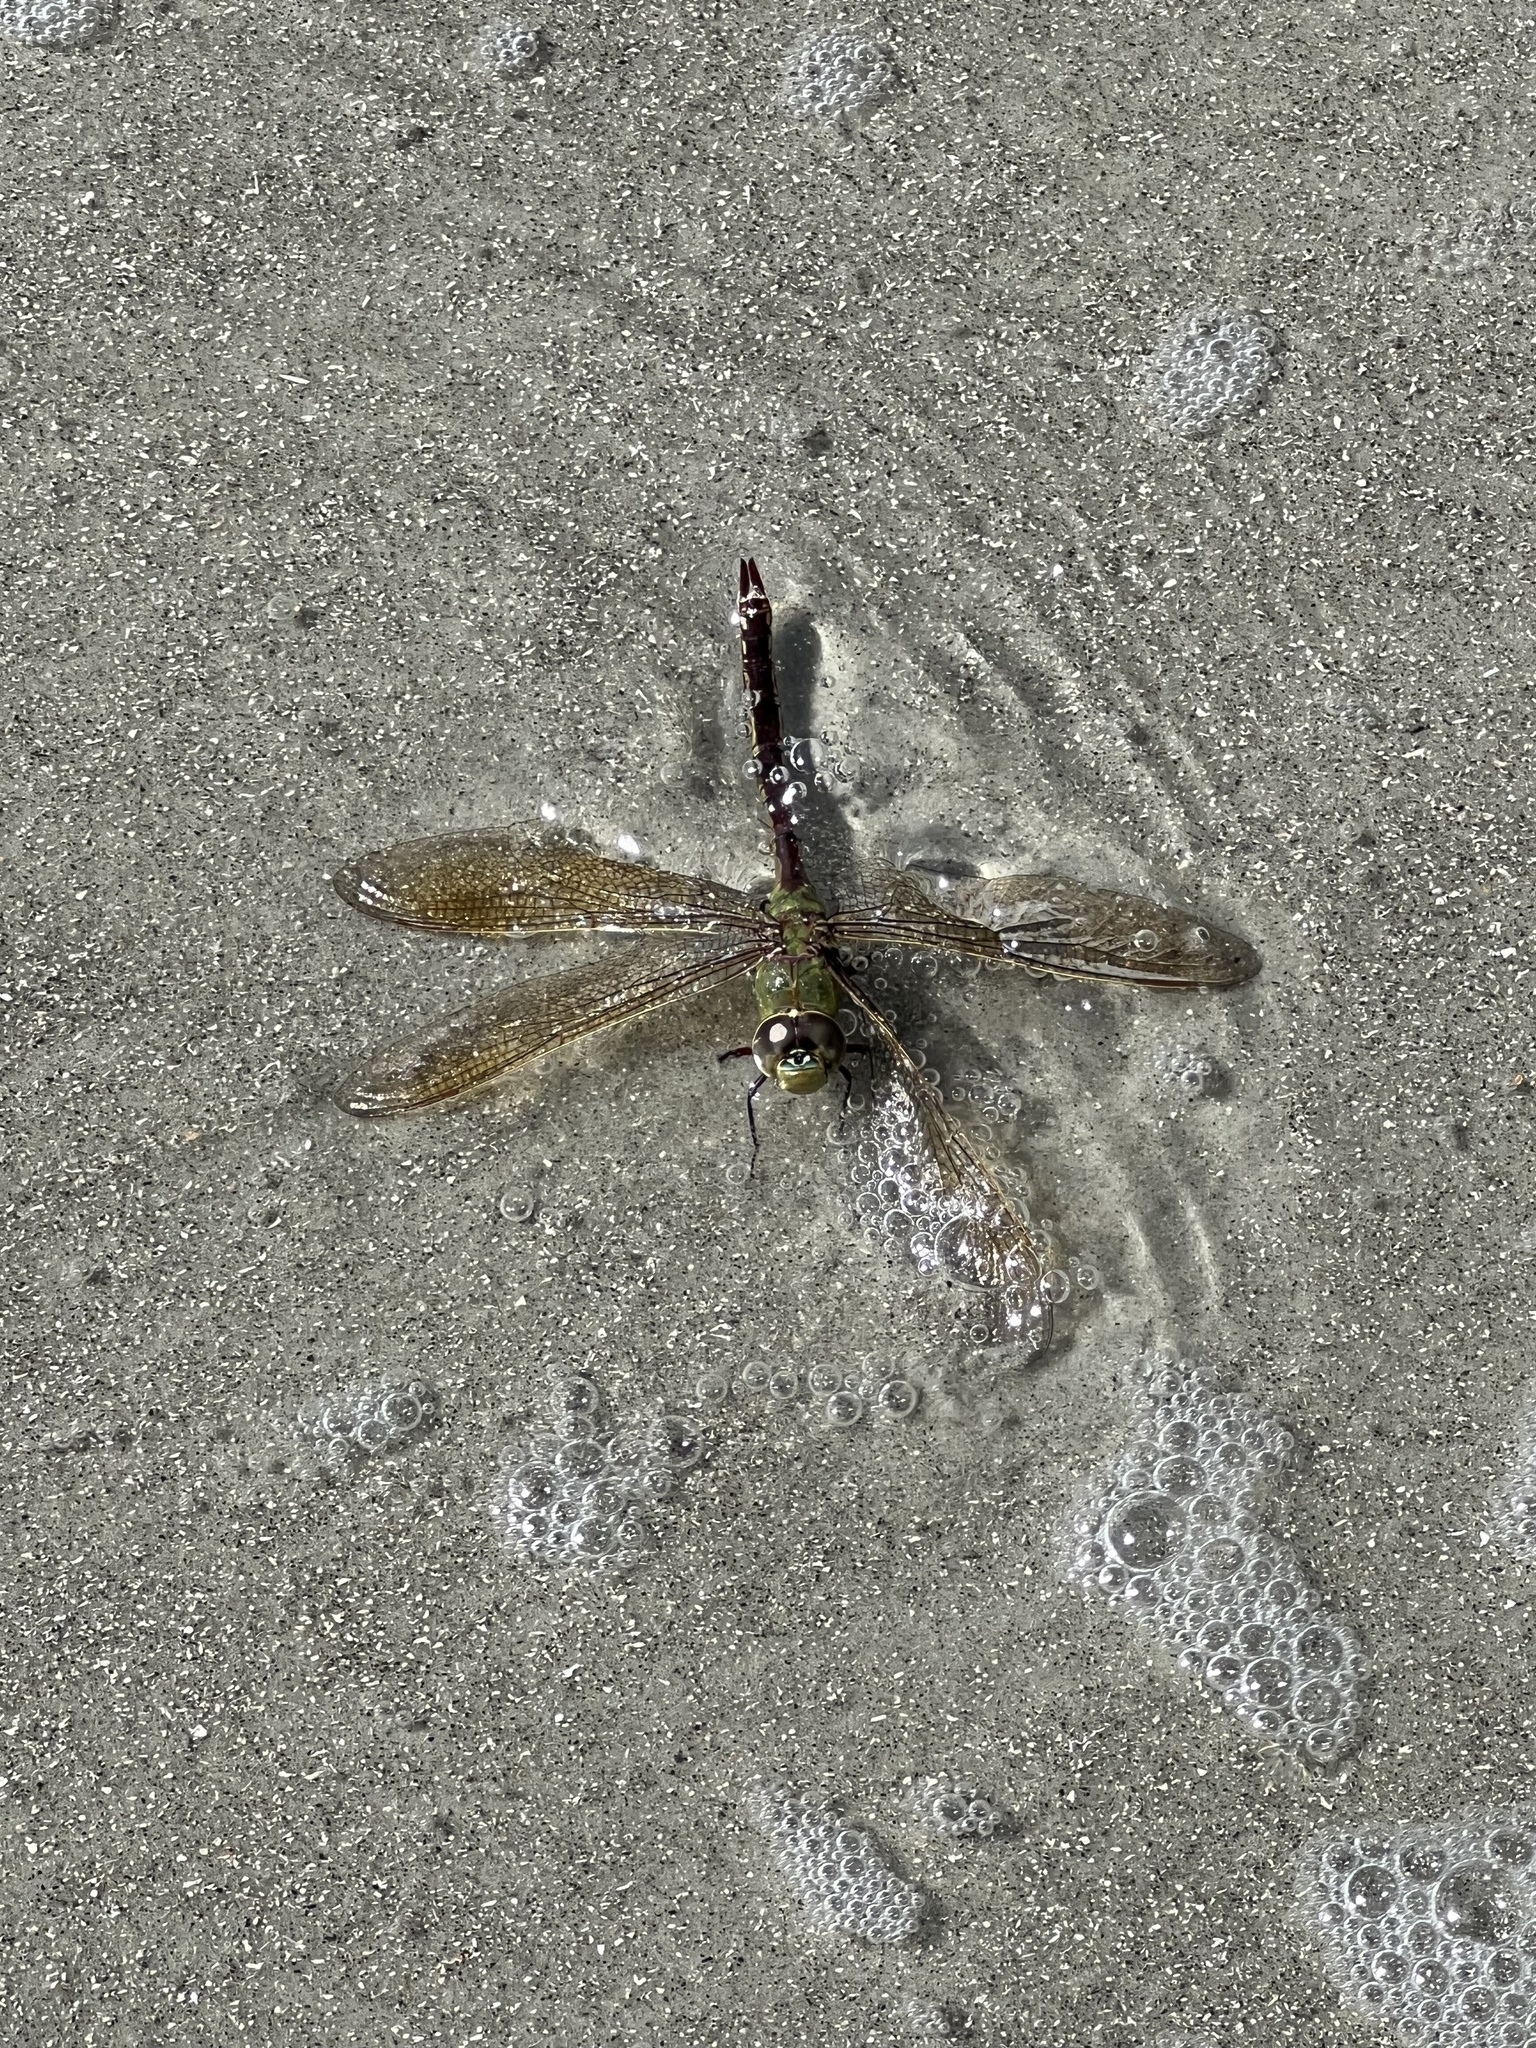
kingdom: Animalia
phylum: Arthropoda
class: Insecta
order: Odonata
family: Aeshnidae
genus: Anax
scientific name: Anax junius
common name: Common green darner
